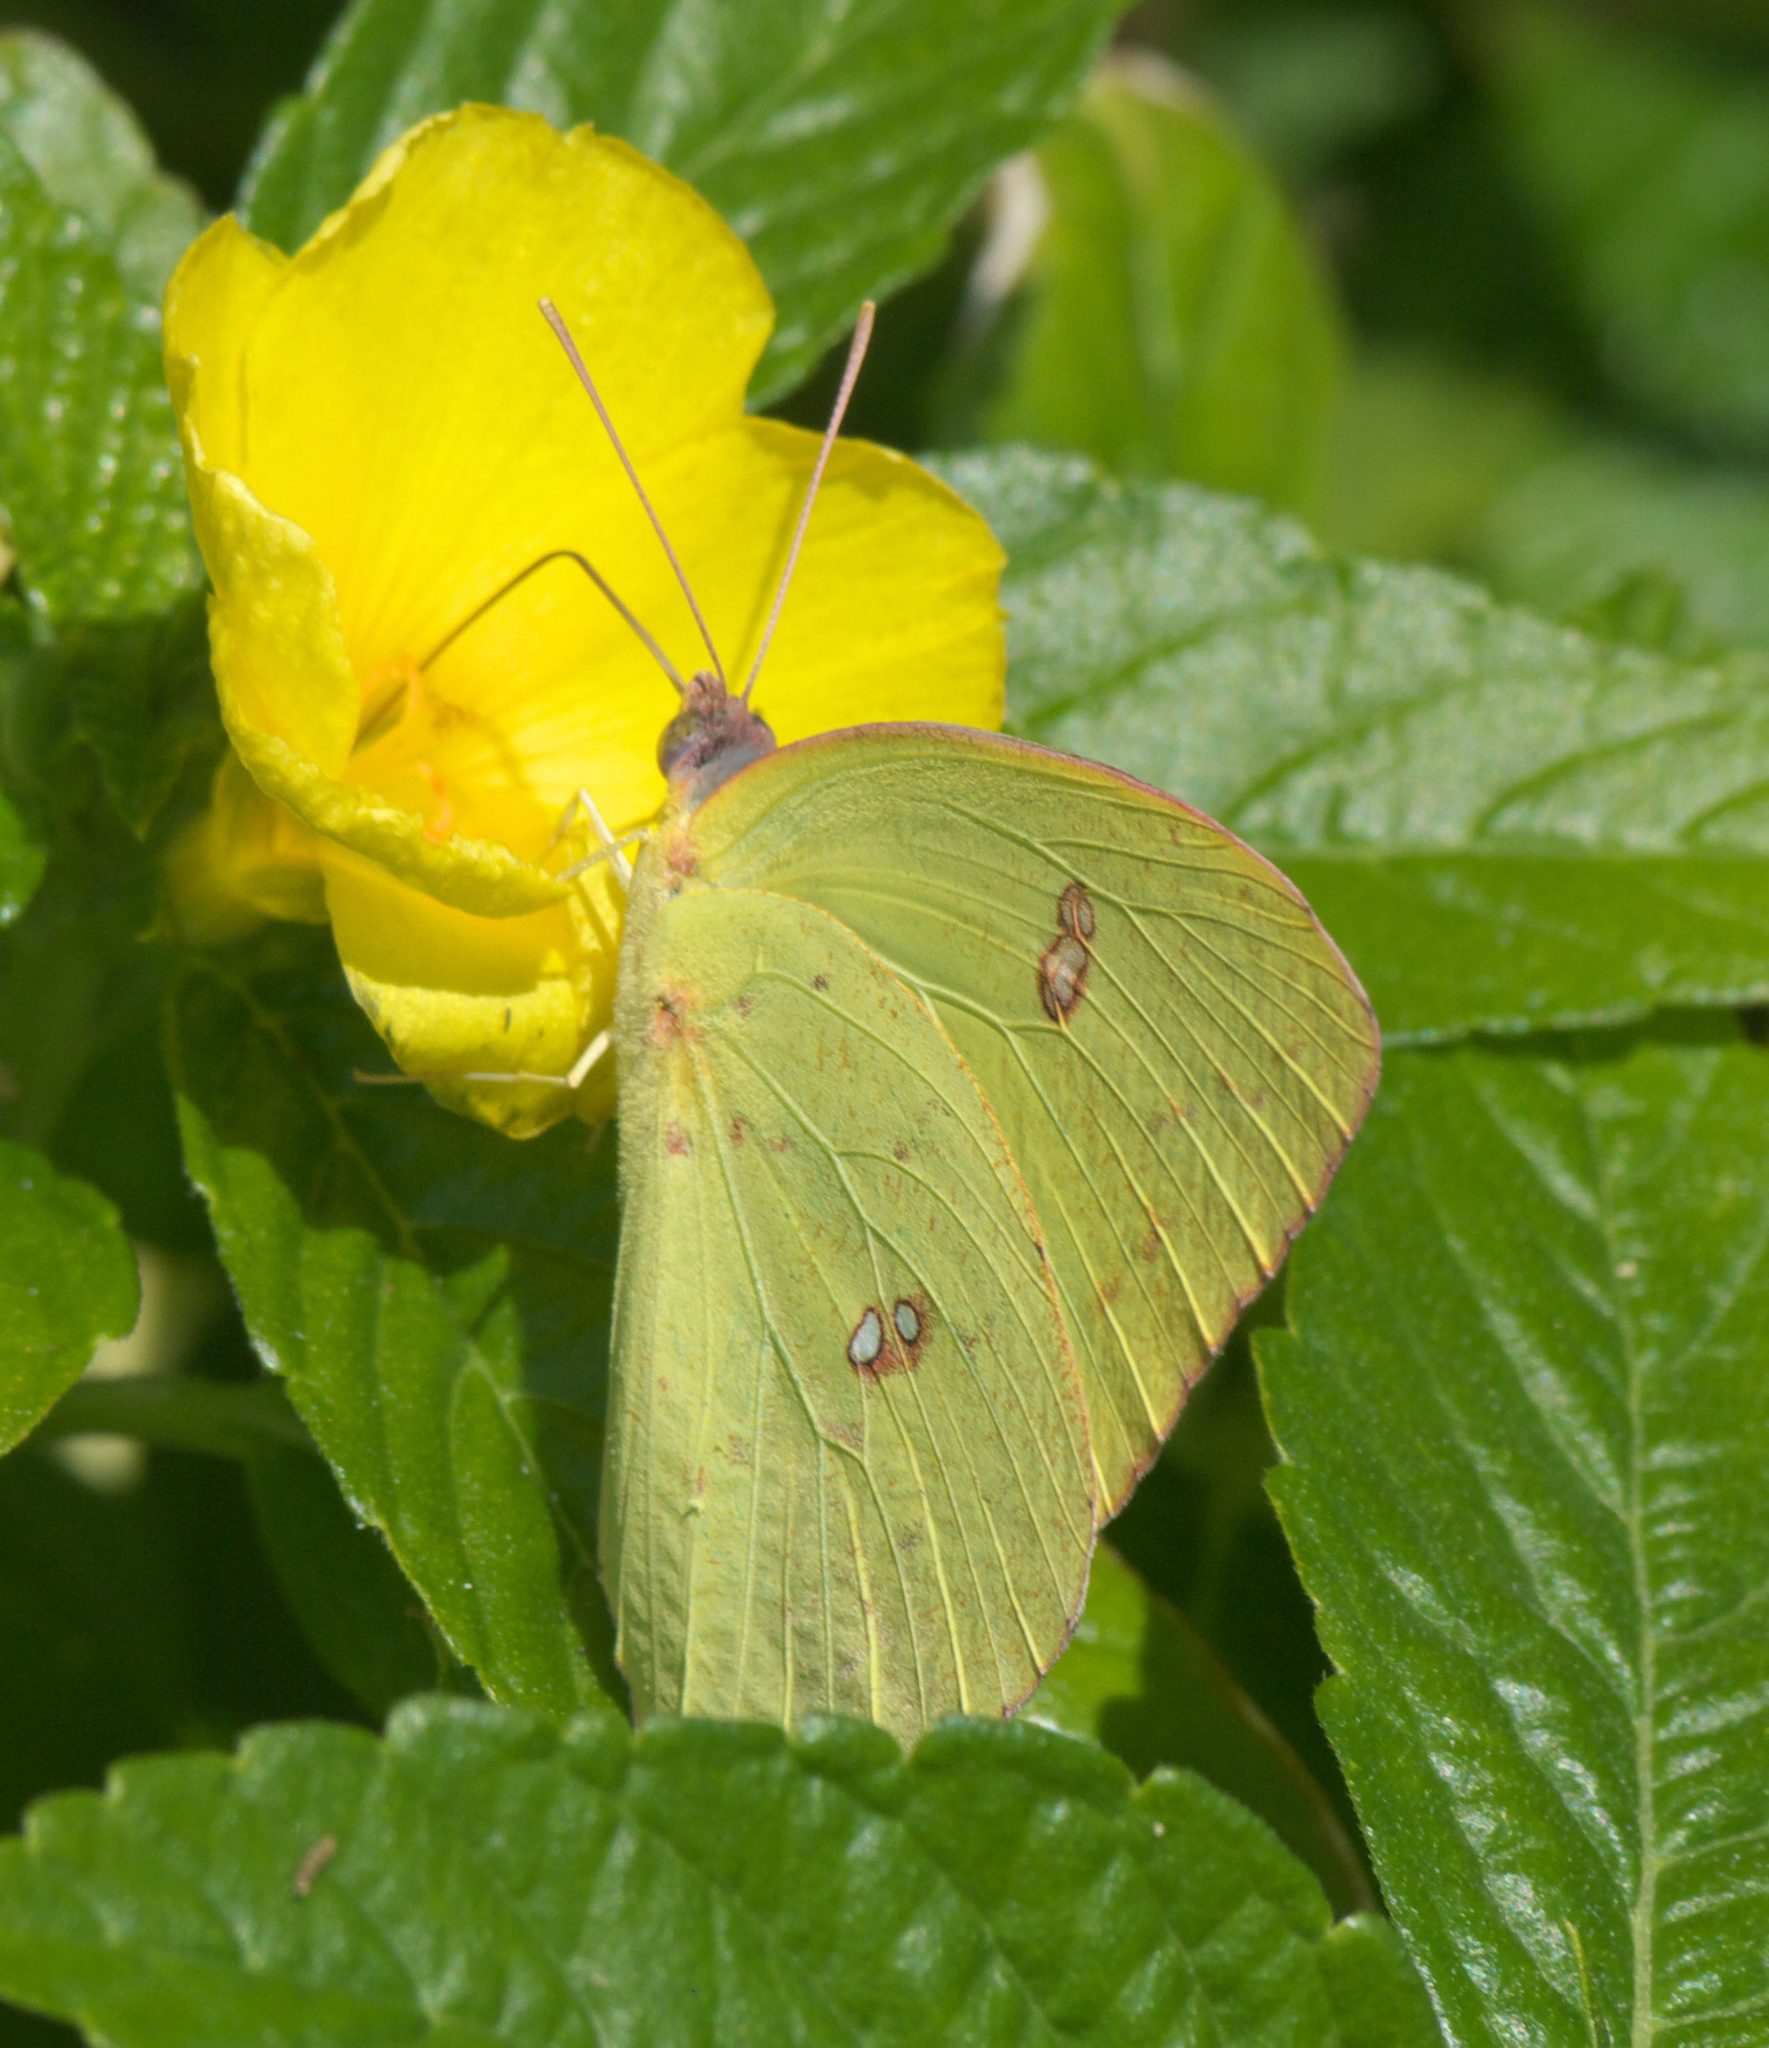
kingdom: Animalia
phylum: Arthropoda
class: Insecta
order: Lepidoptera
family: Pieridae
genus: Phoebis
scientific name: Phoebis sennae
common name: Cloudless sulphur
